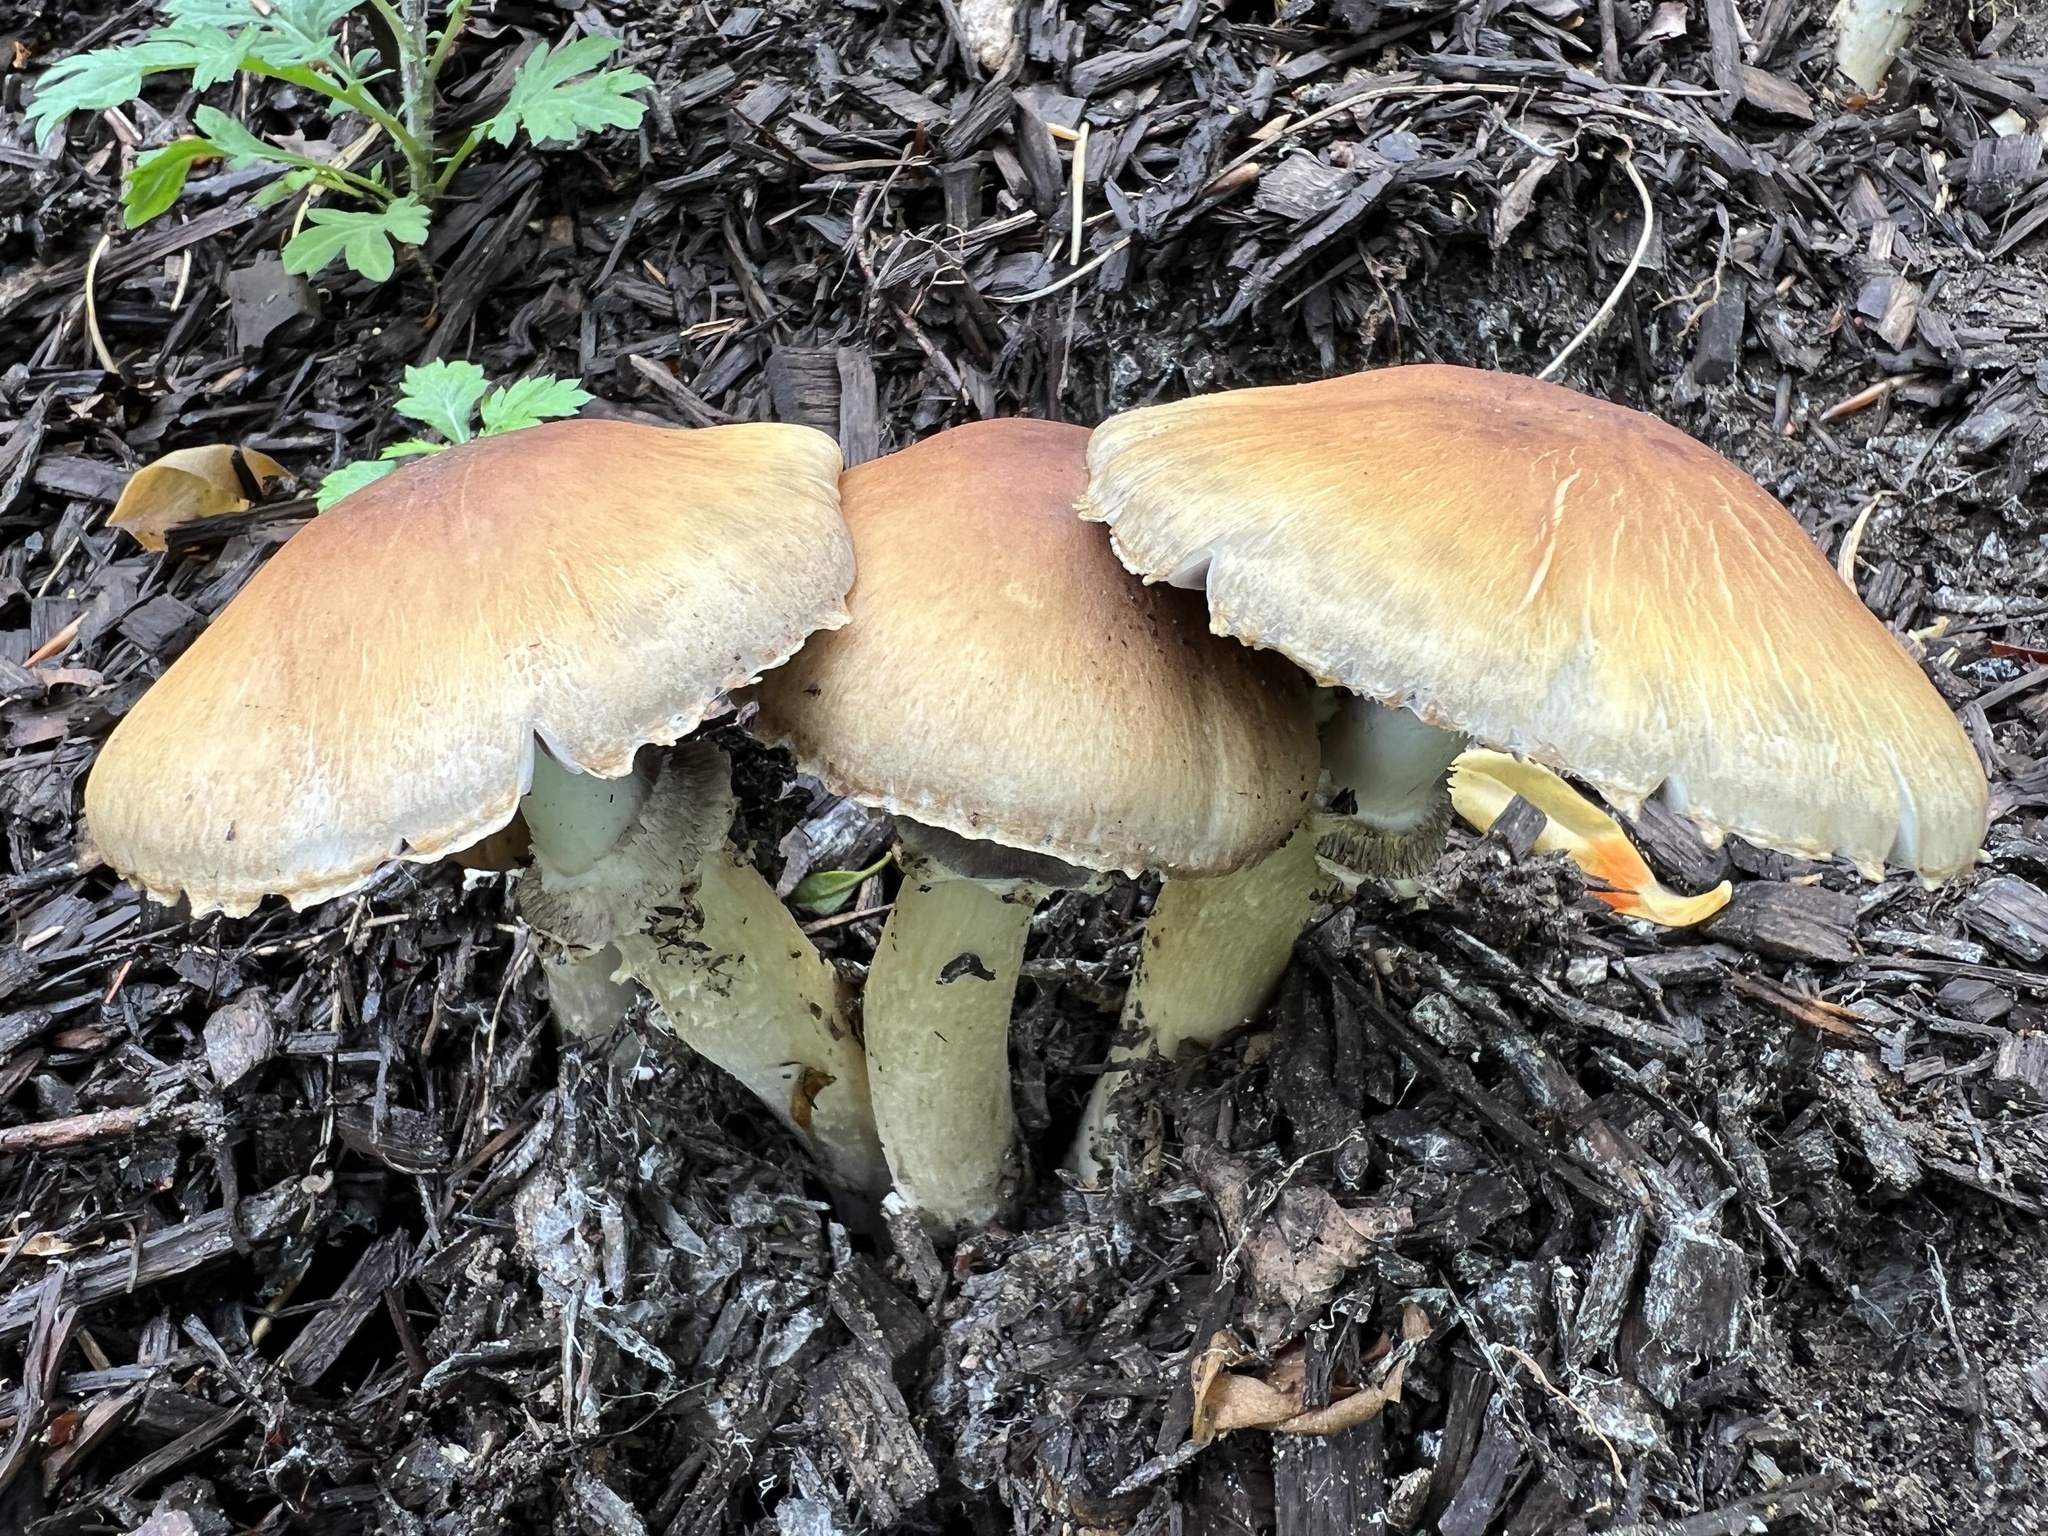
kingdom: Fungi
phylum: Basidiomycota
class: Agaricomycetes
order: Agaricales
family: Strophariaceae
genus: Stropharia
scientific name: Stropharia rugosoannulata
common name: Wine roundhead
